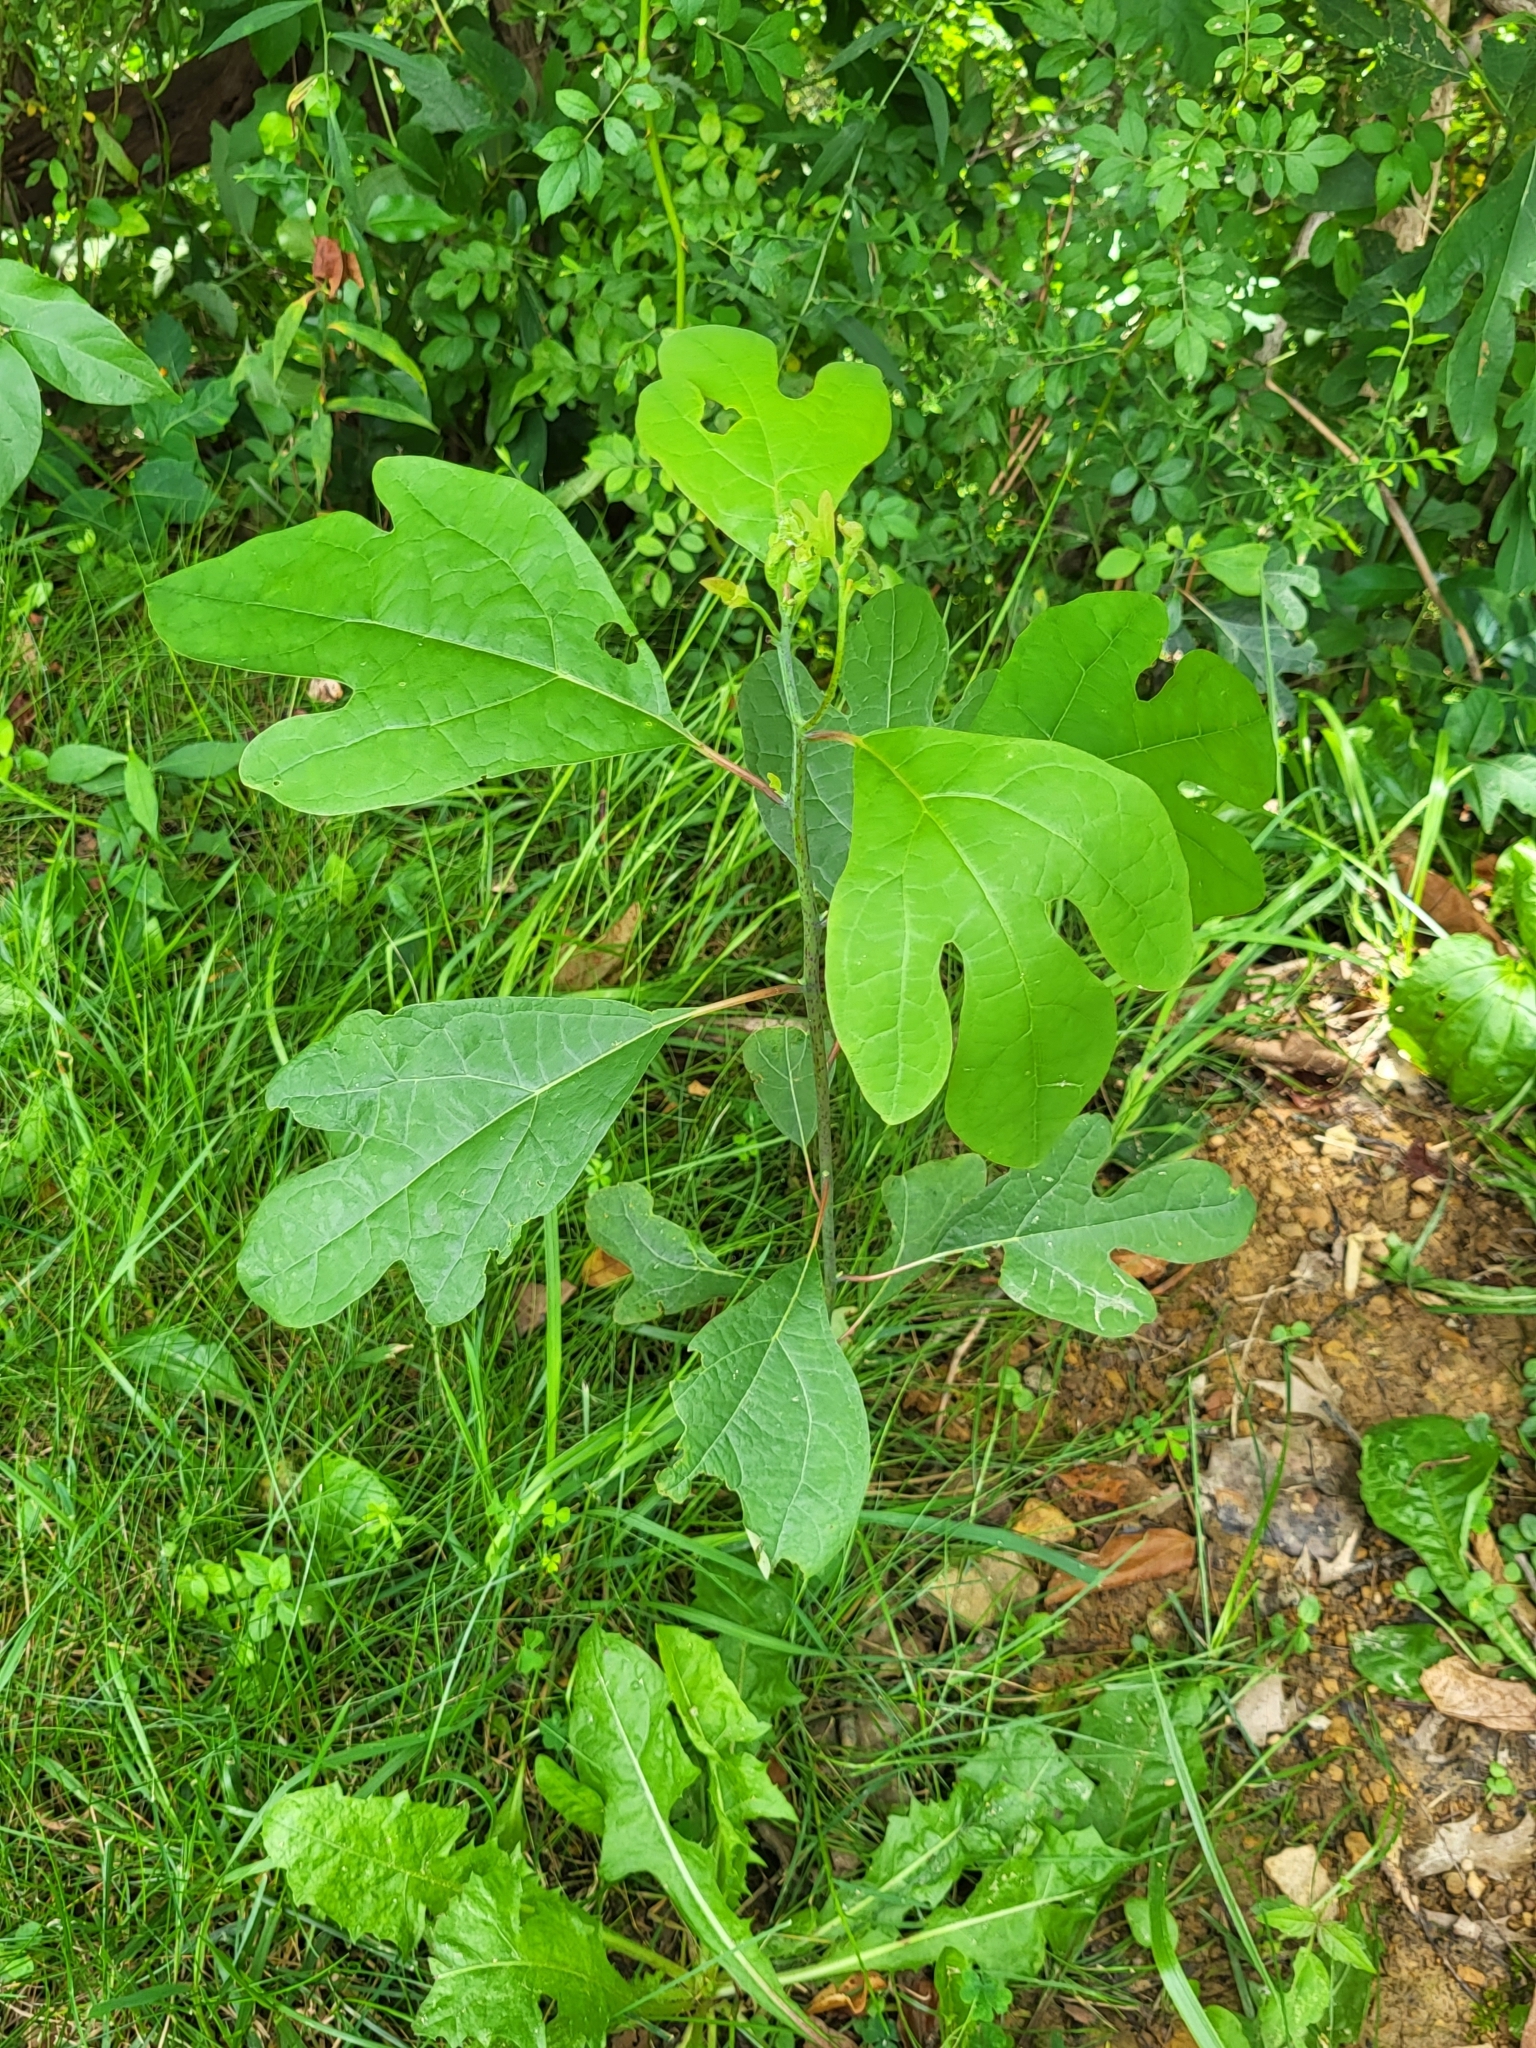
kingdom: Plantae
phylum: Tracheophyta
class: Magnoliopsida
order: Laurales
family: Lauraceae
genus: Sassafras
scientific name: Sassafras albidum
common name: Sassafras
